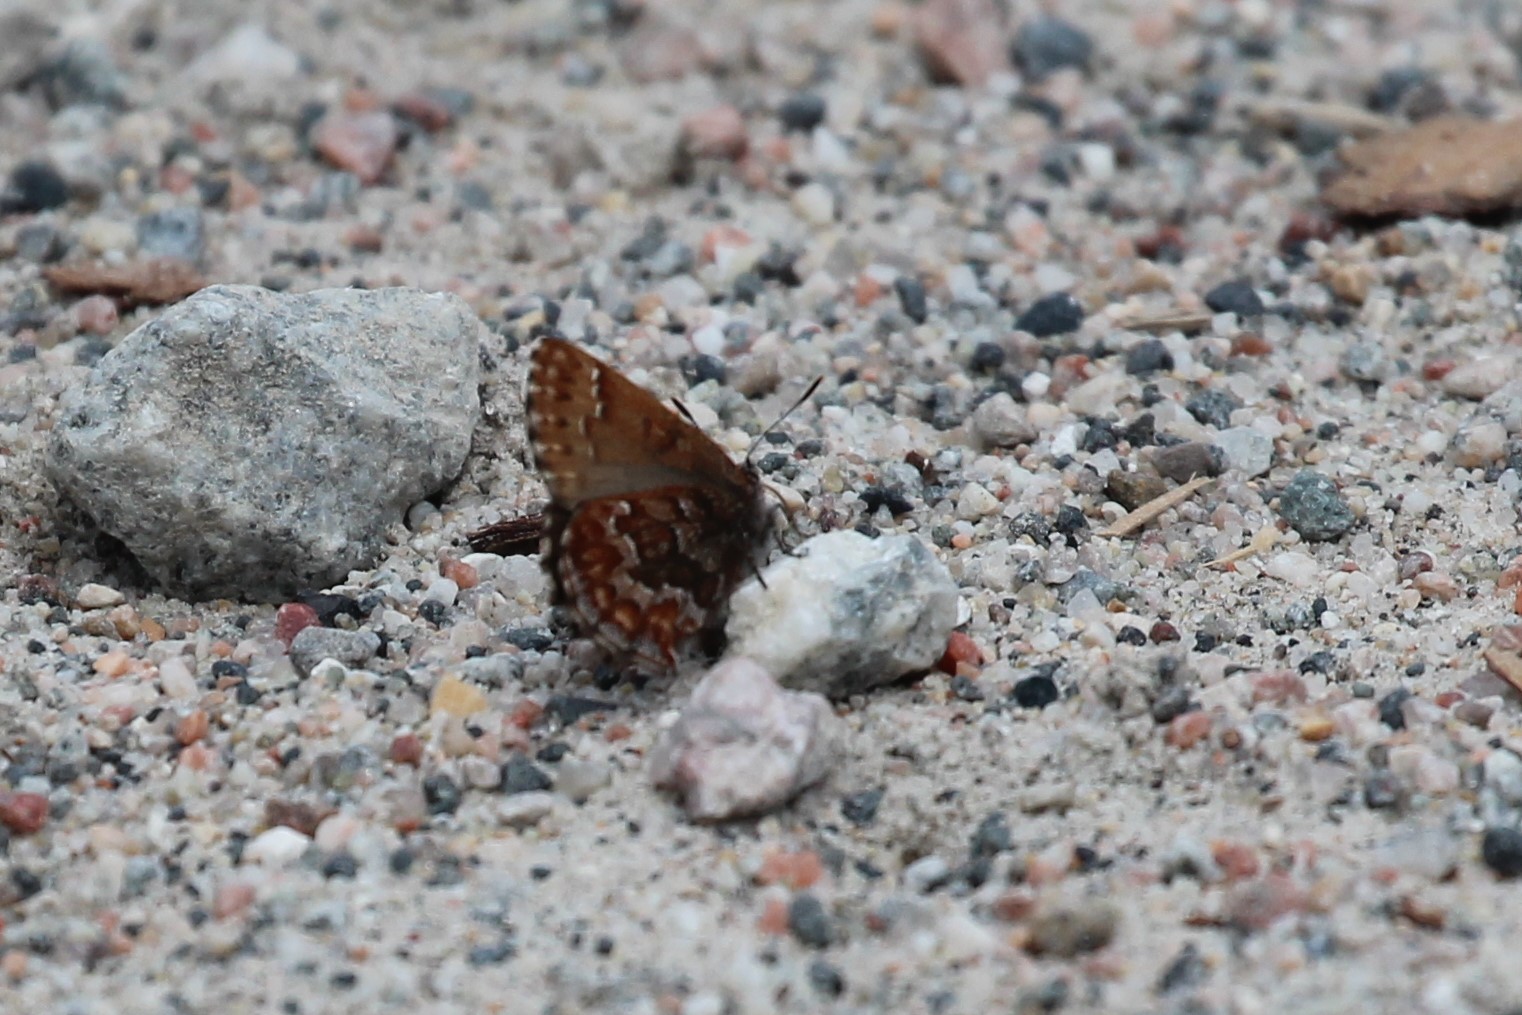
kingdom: Animalia
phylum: Arthropoda
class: Insecta
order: Lepidoptera
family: Lycaenidae
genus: Incisalia
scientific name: Incisalia niphon
